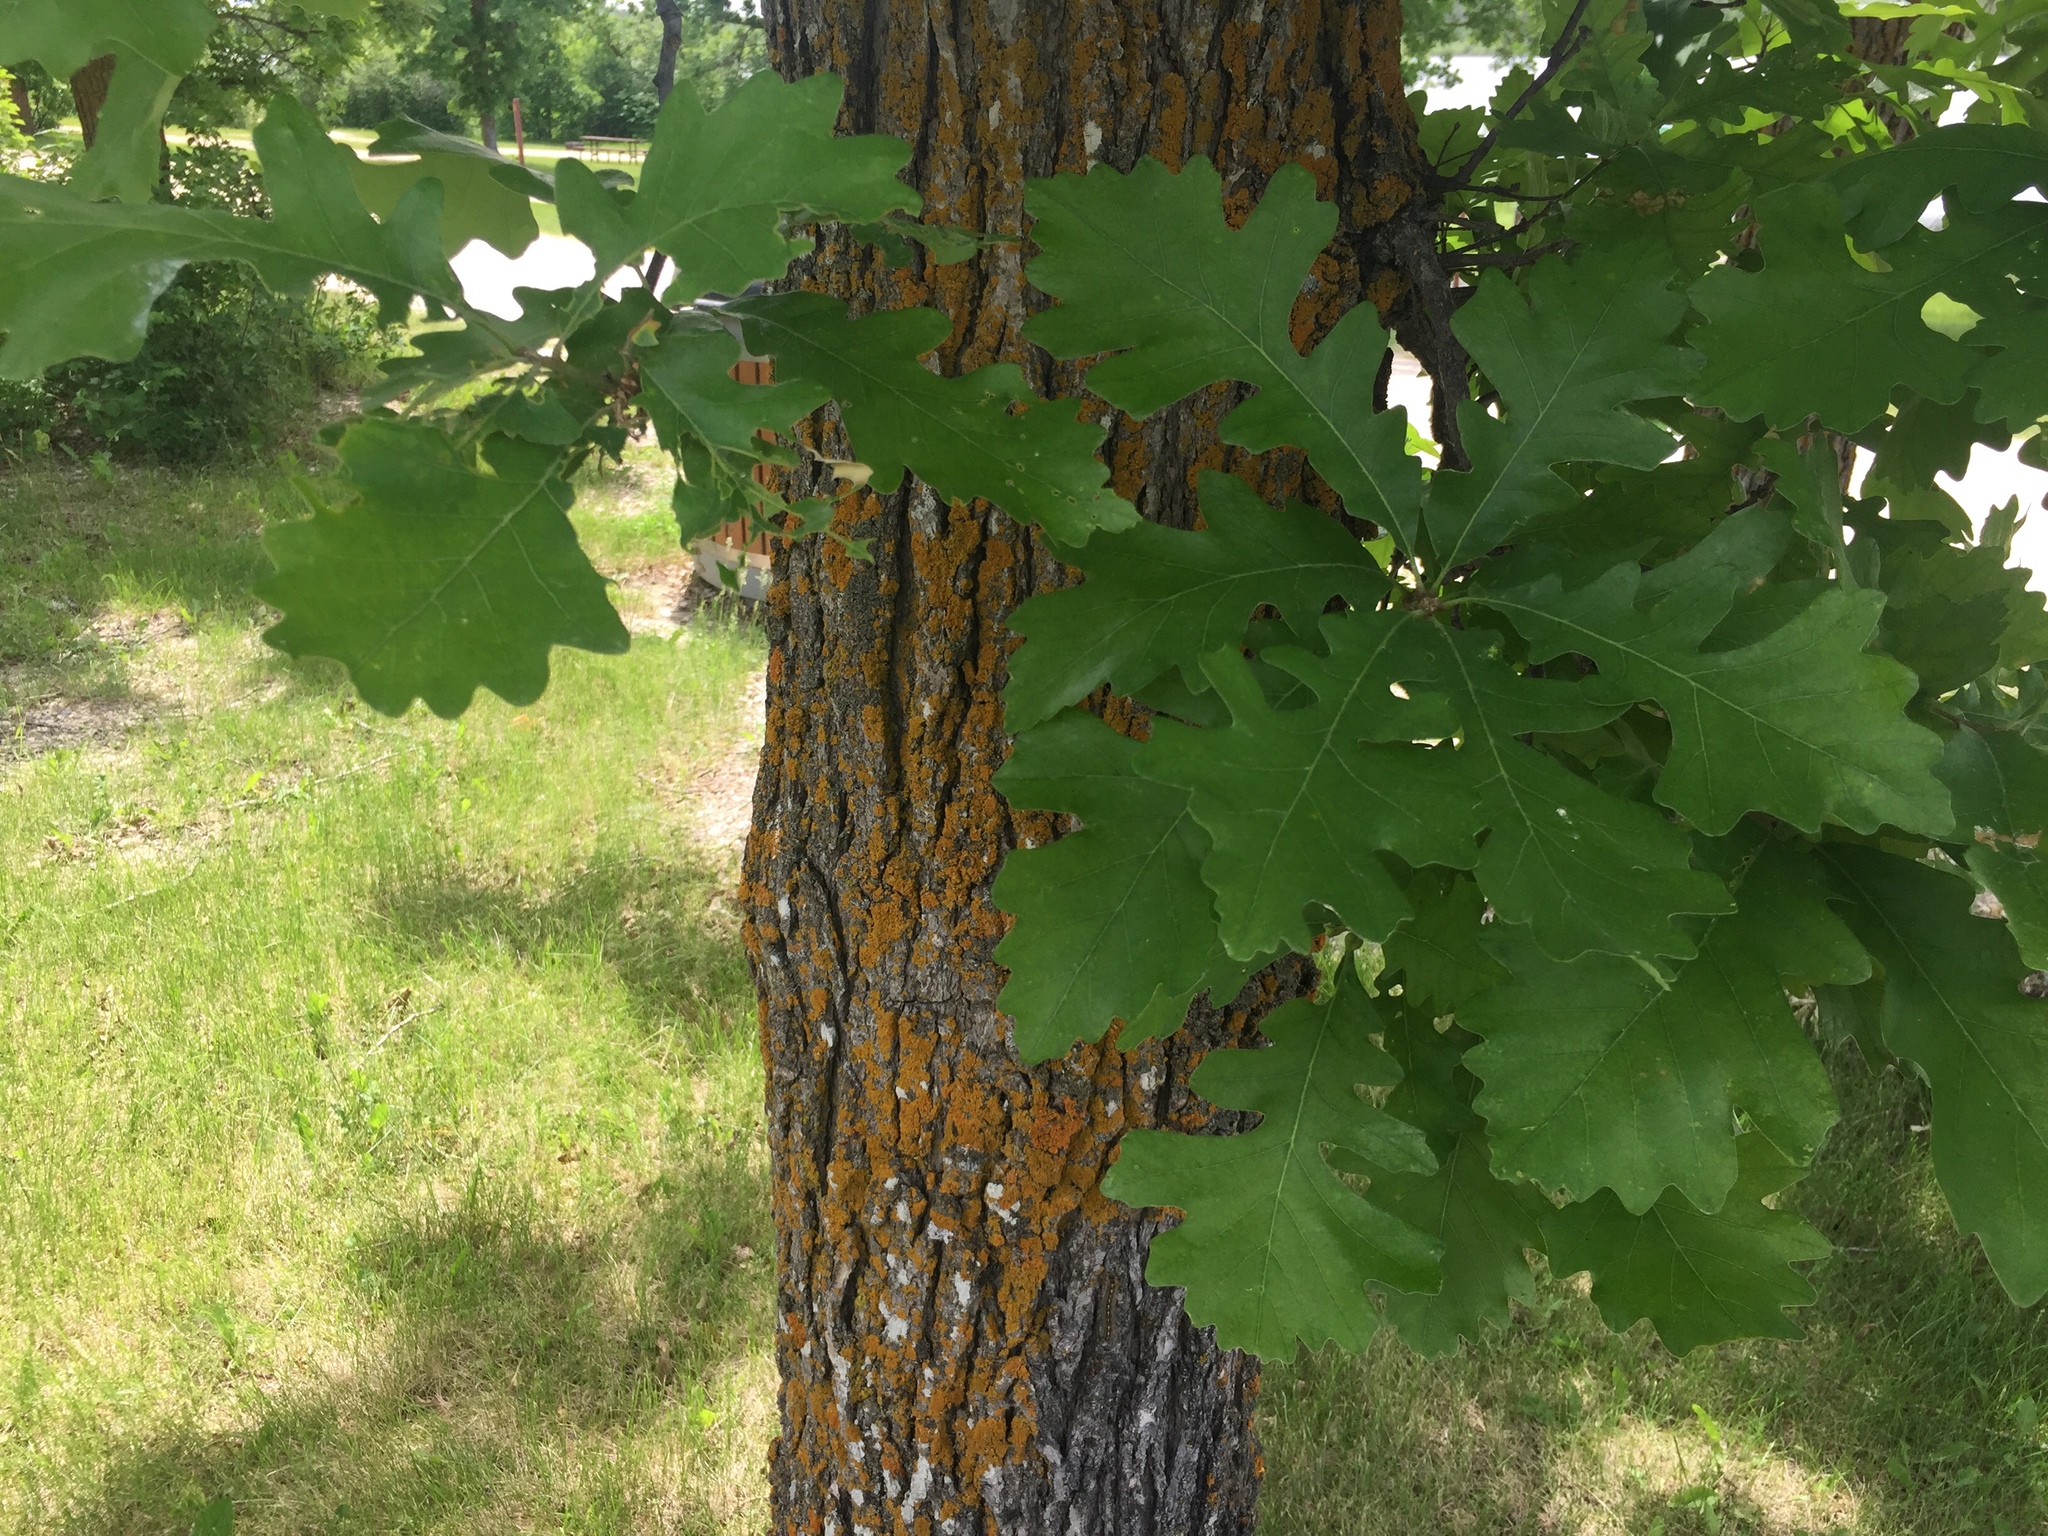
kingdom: Plantae
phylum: Tracheophyta
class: Magnoliopsida
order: Fagales
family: Fagaceae
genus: Quercus
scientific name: Quercus macrocarpa
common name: Bur oak
